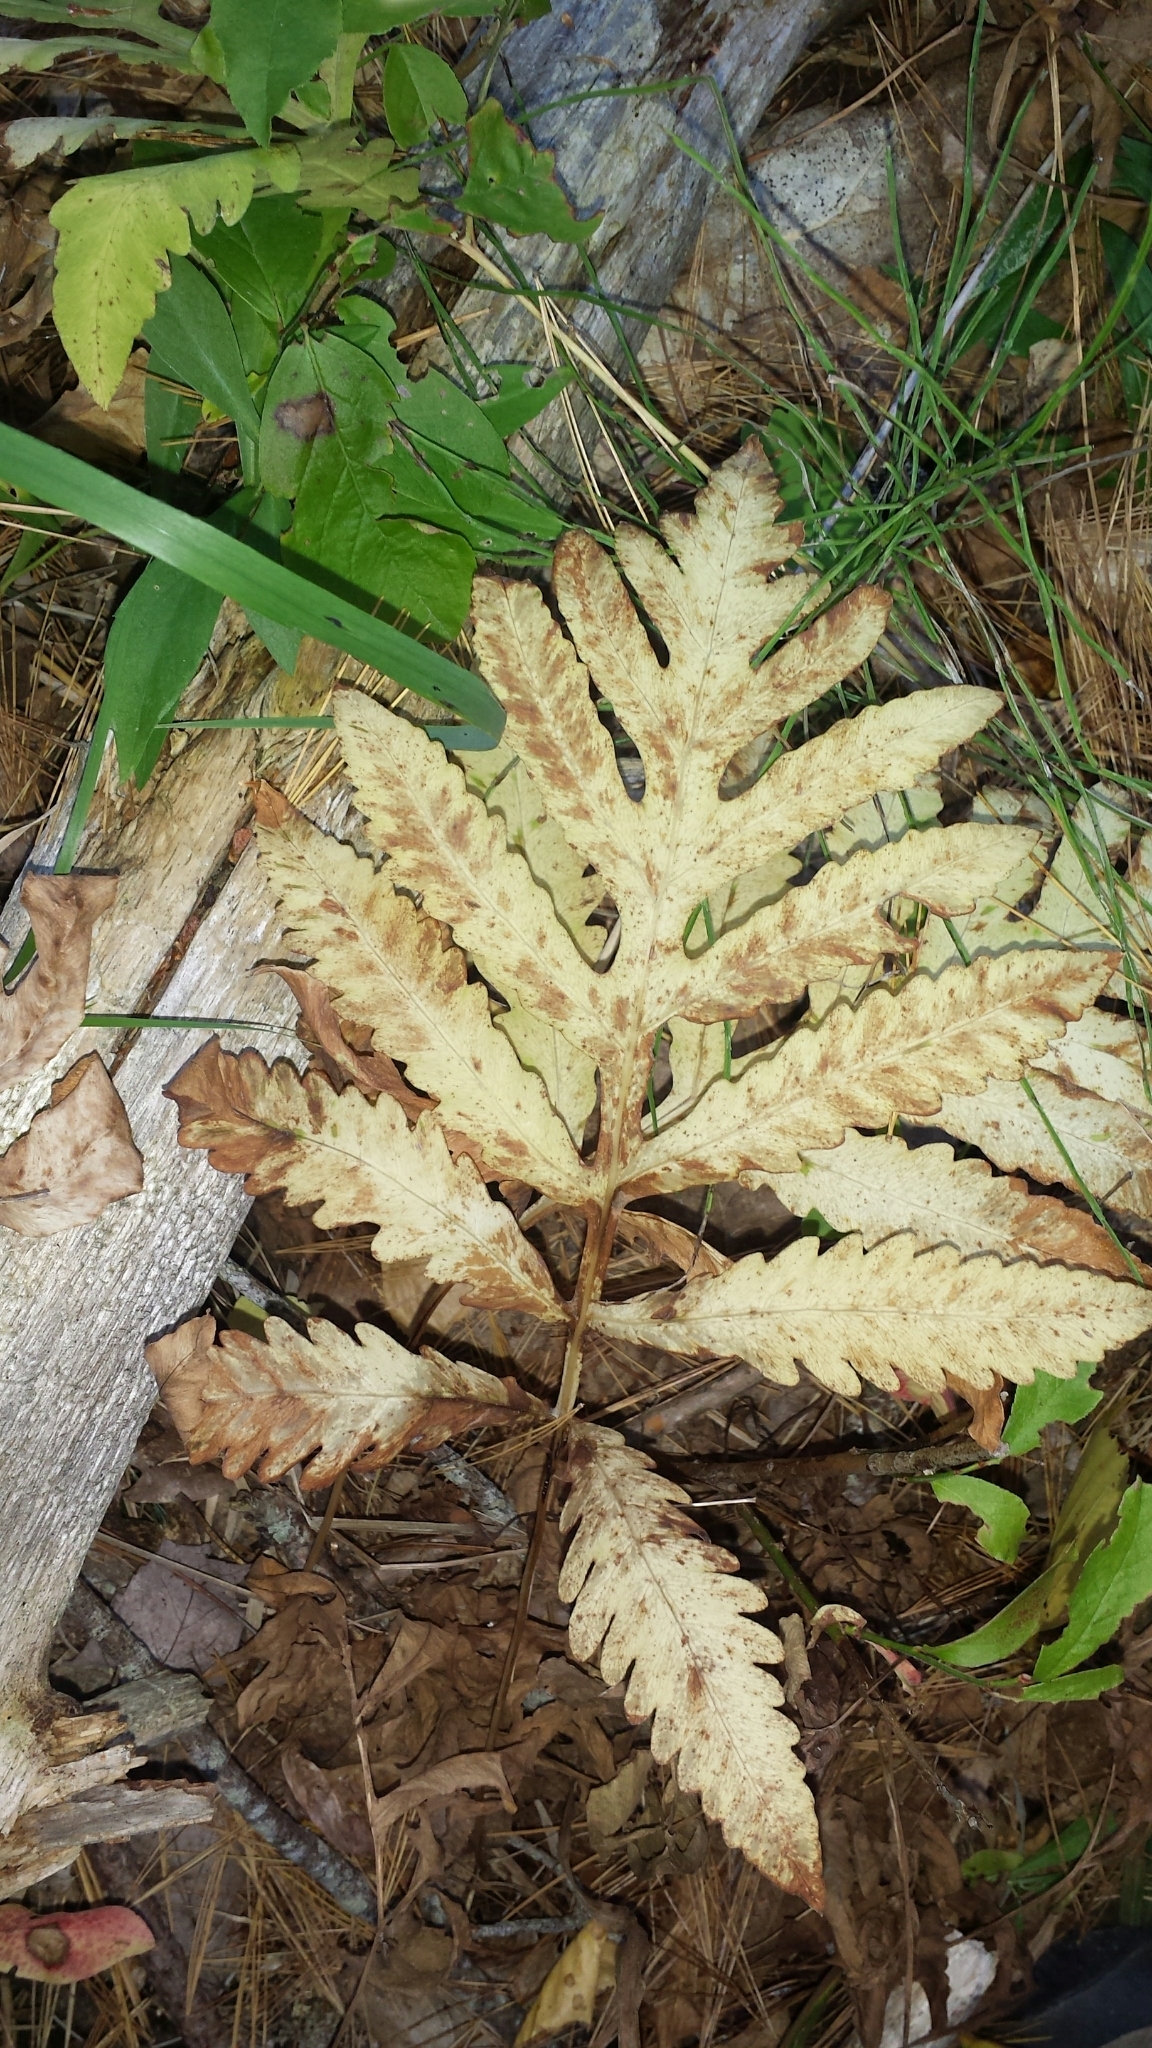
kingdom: Plantae
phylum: Tracheophyta
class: Polypodiopsida
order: Polypodiales
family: Onocleaceae
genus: Onoclea
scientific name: Onoclea sensibilis
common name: Sensitive fern
